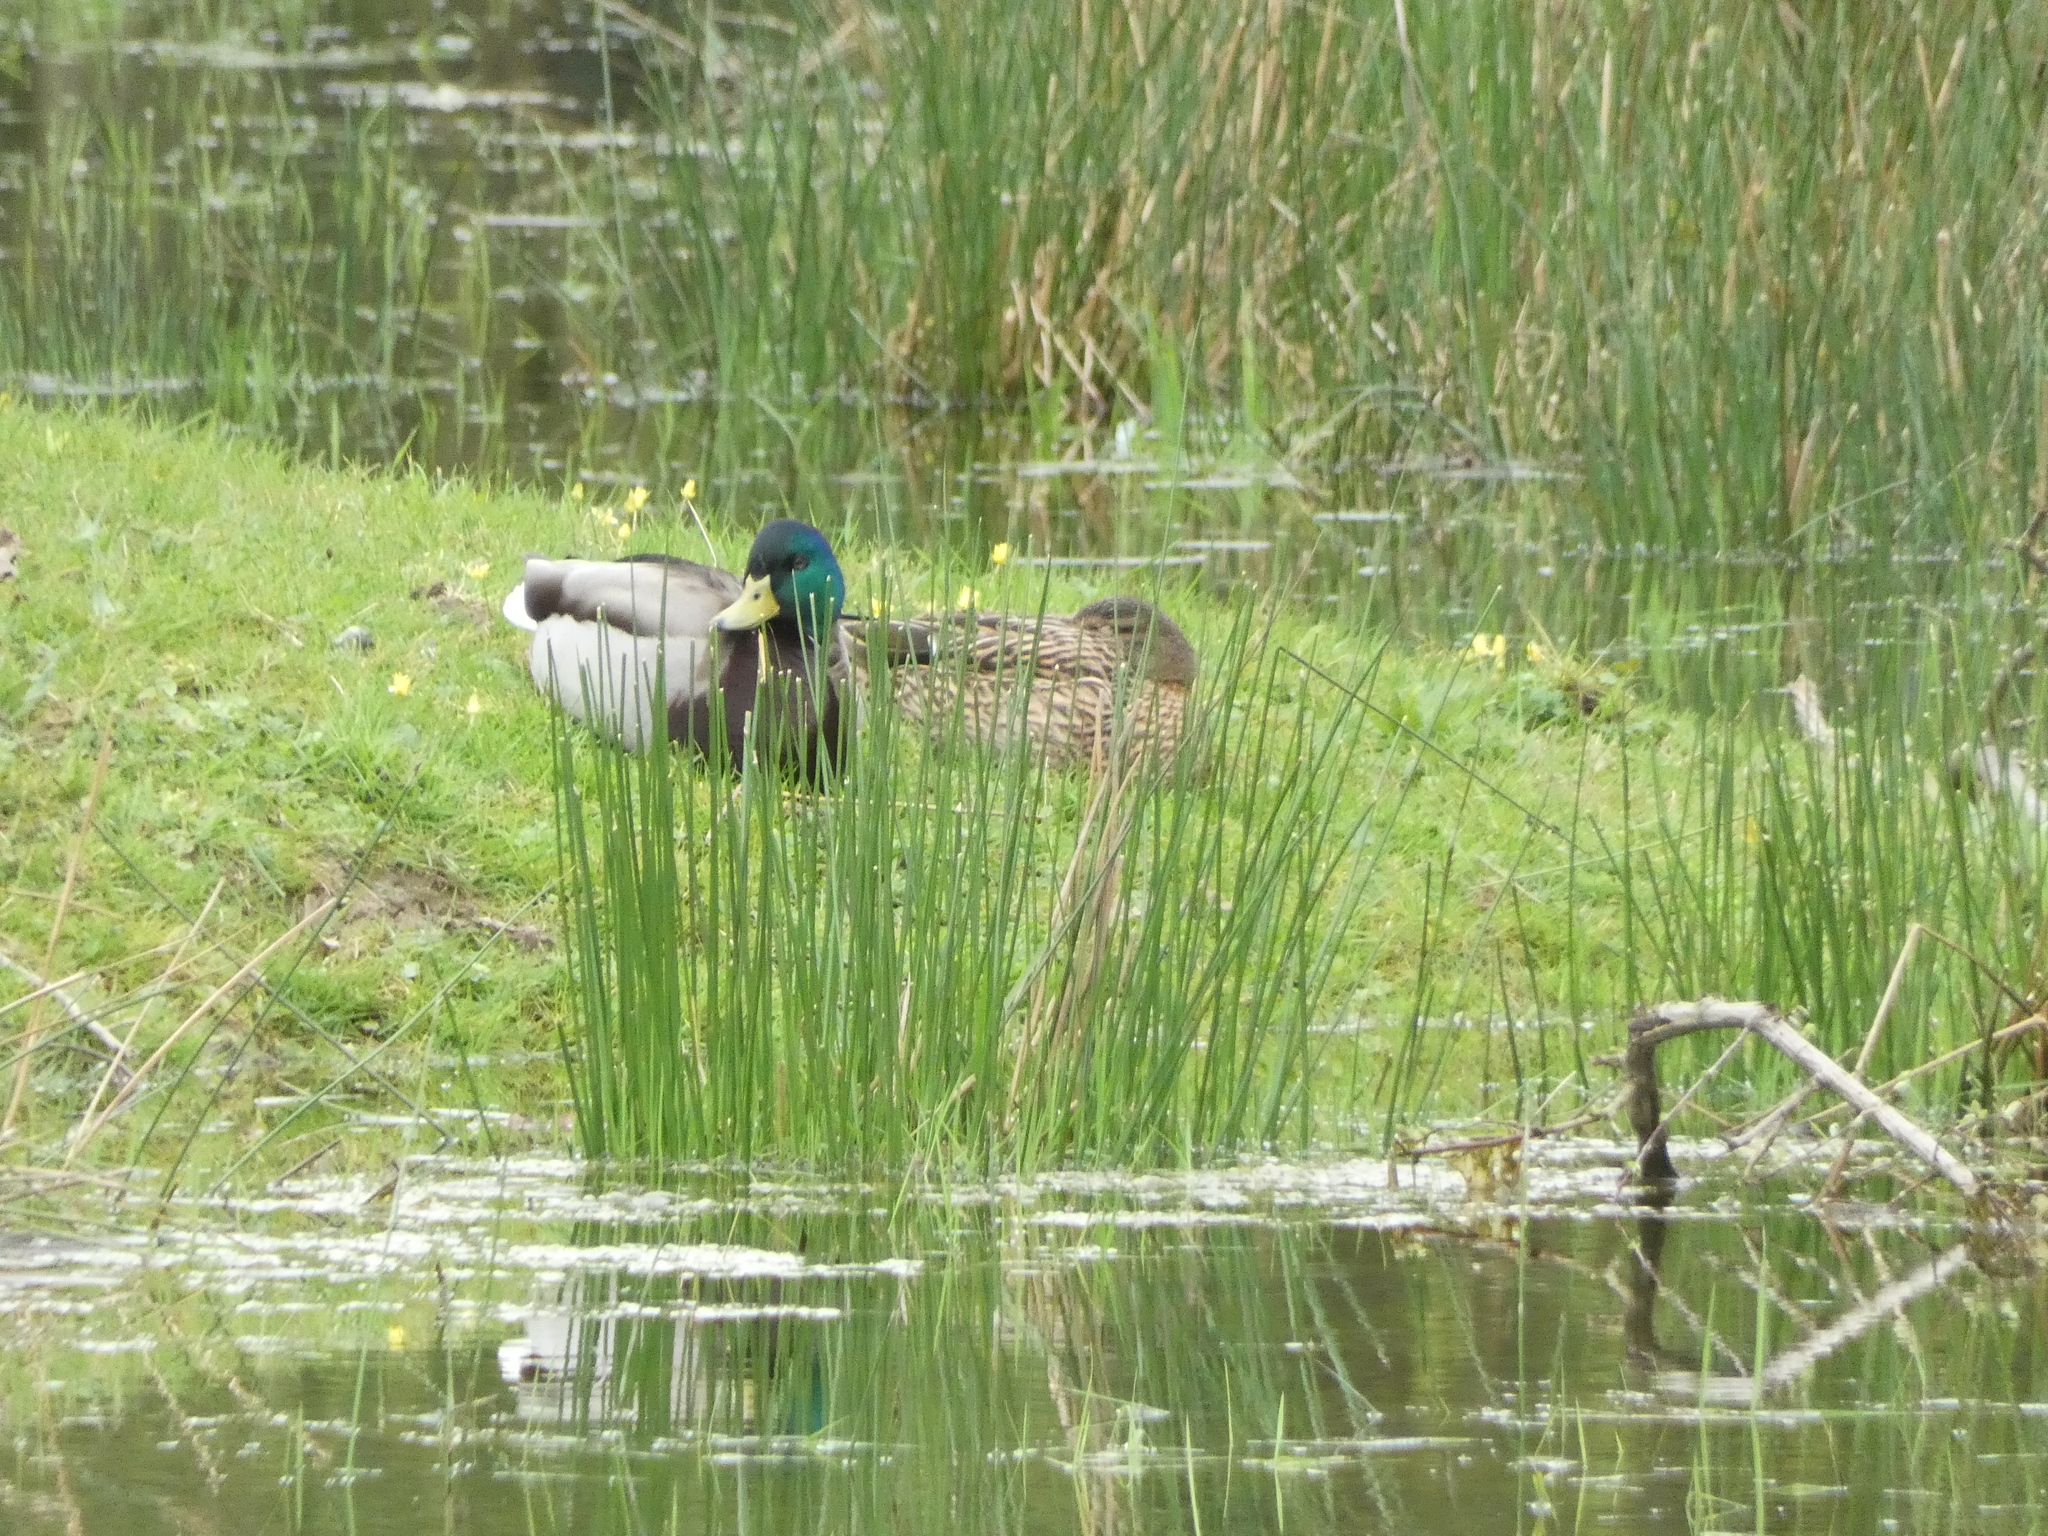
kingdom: Animalia
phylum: Chordata
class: Aves
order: Anseriformes
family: Anatidae
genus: Anas
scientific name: Anas platyrhynchos
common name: Mallard
